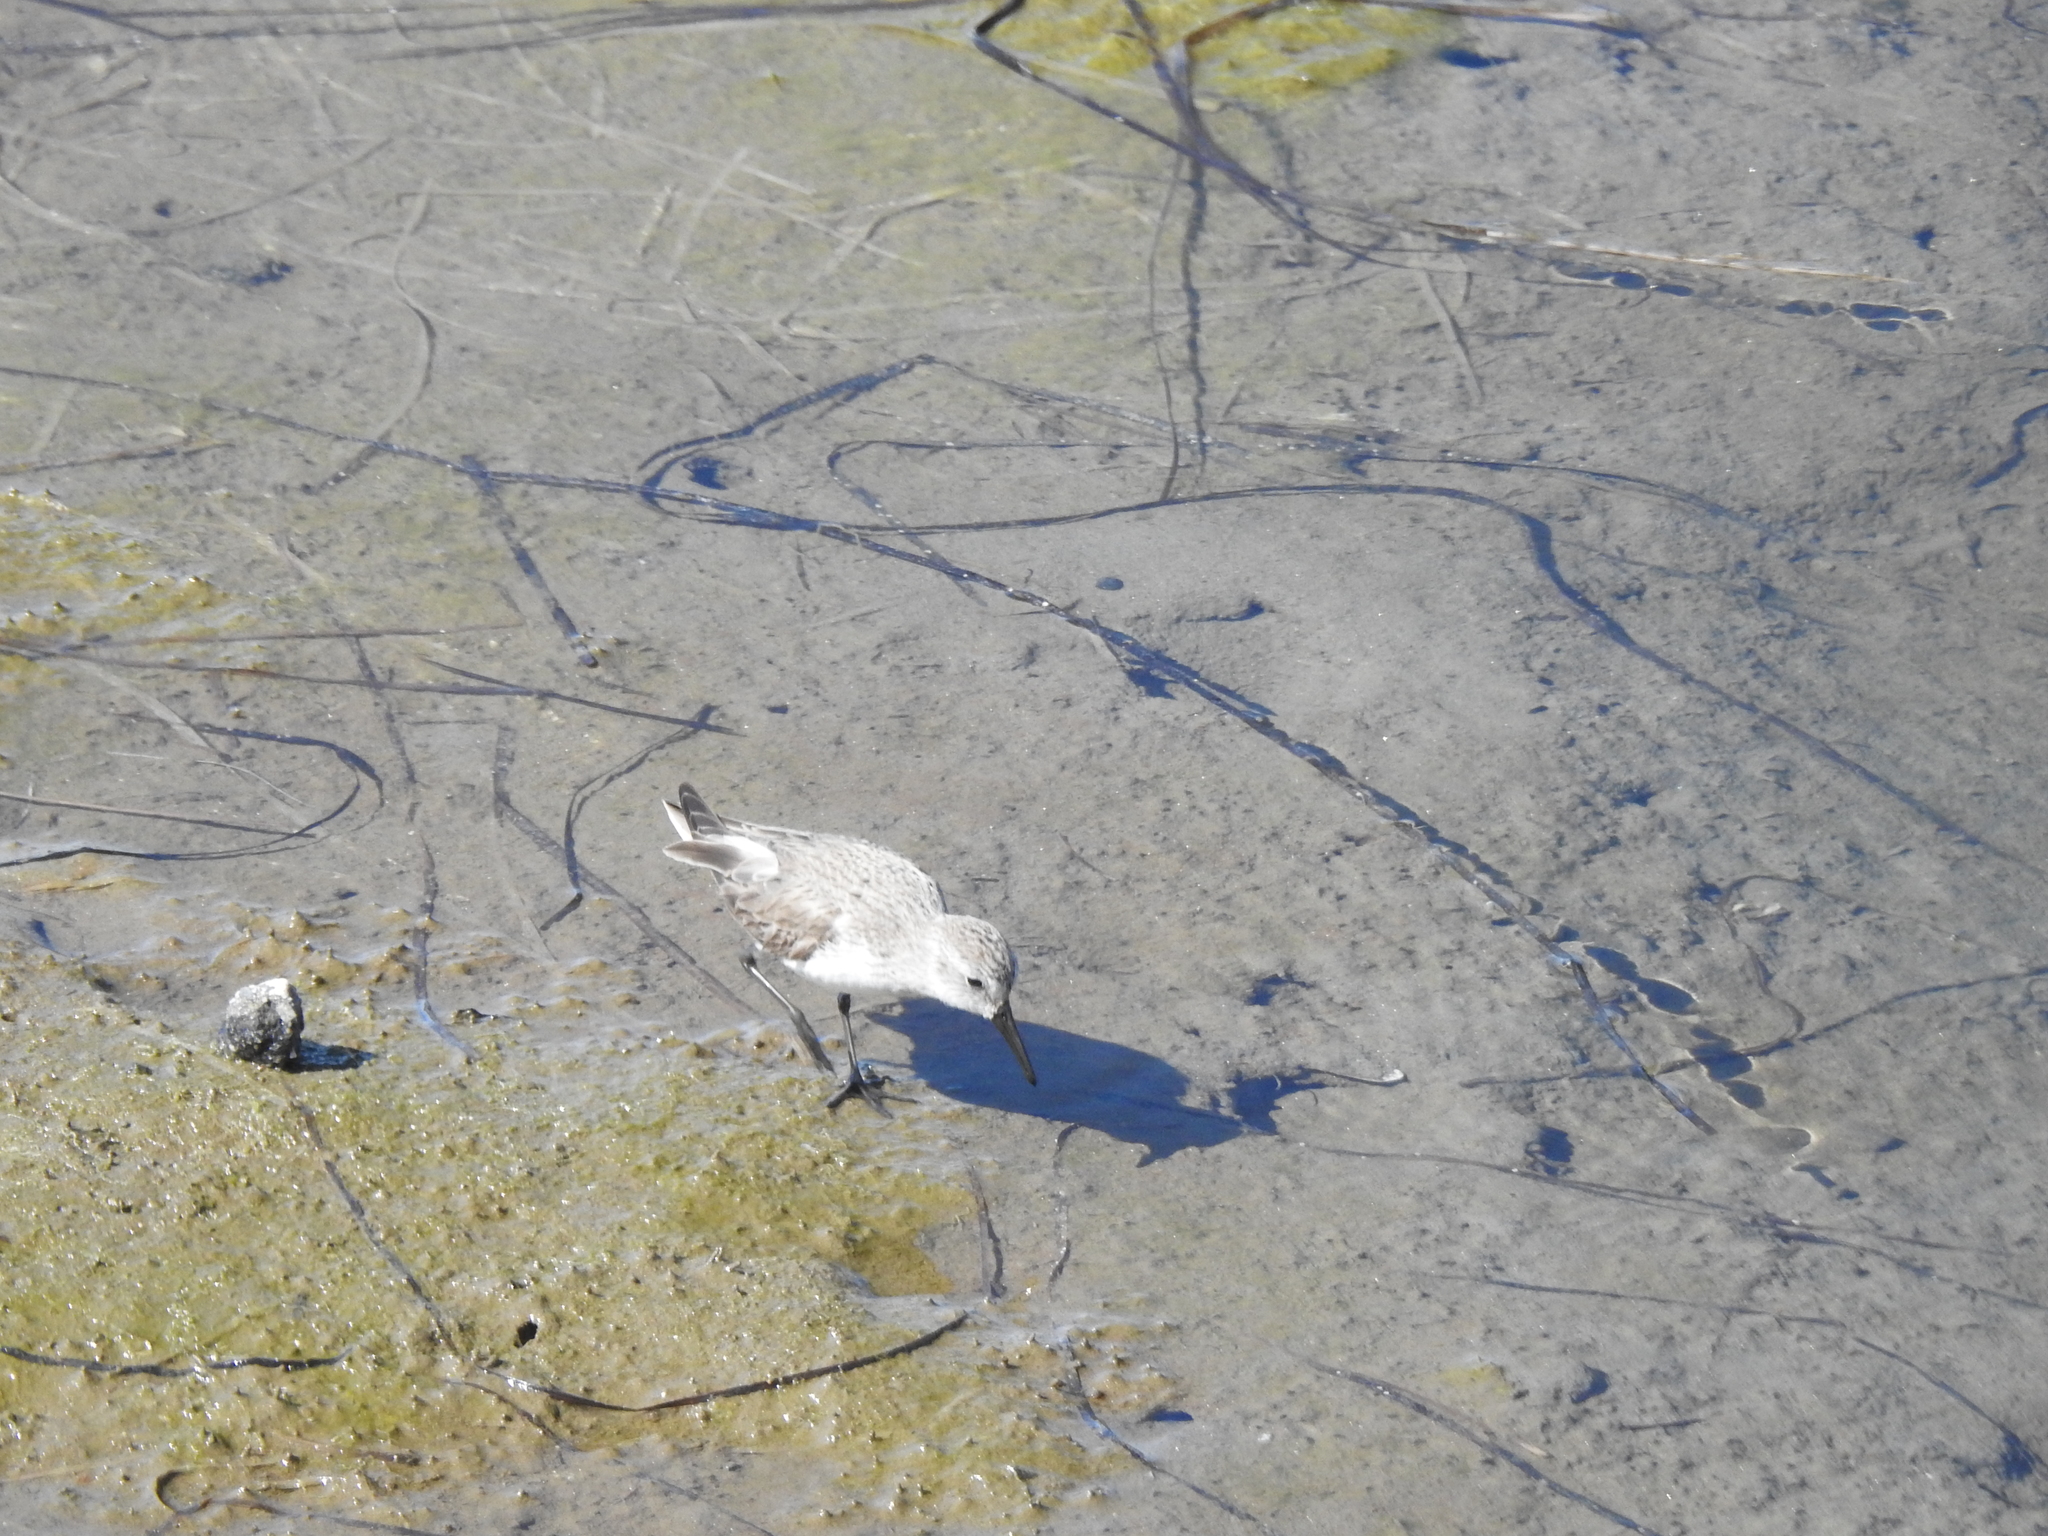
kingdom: Animalia
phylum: Chordata
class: Aves
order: Charadriiformes
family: Scolopacidae
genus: Calidris
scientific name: Calidris alba
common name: Sanderling
